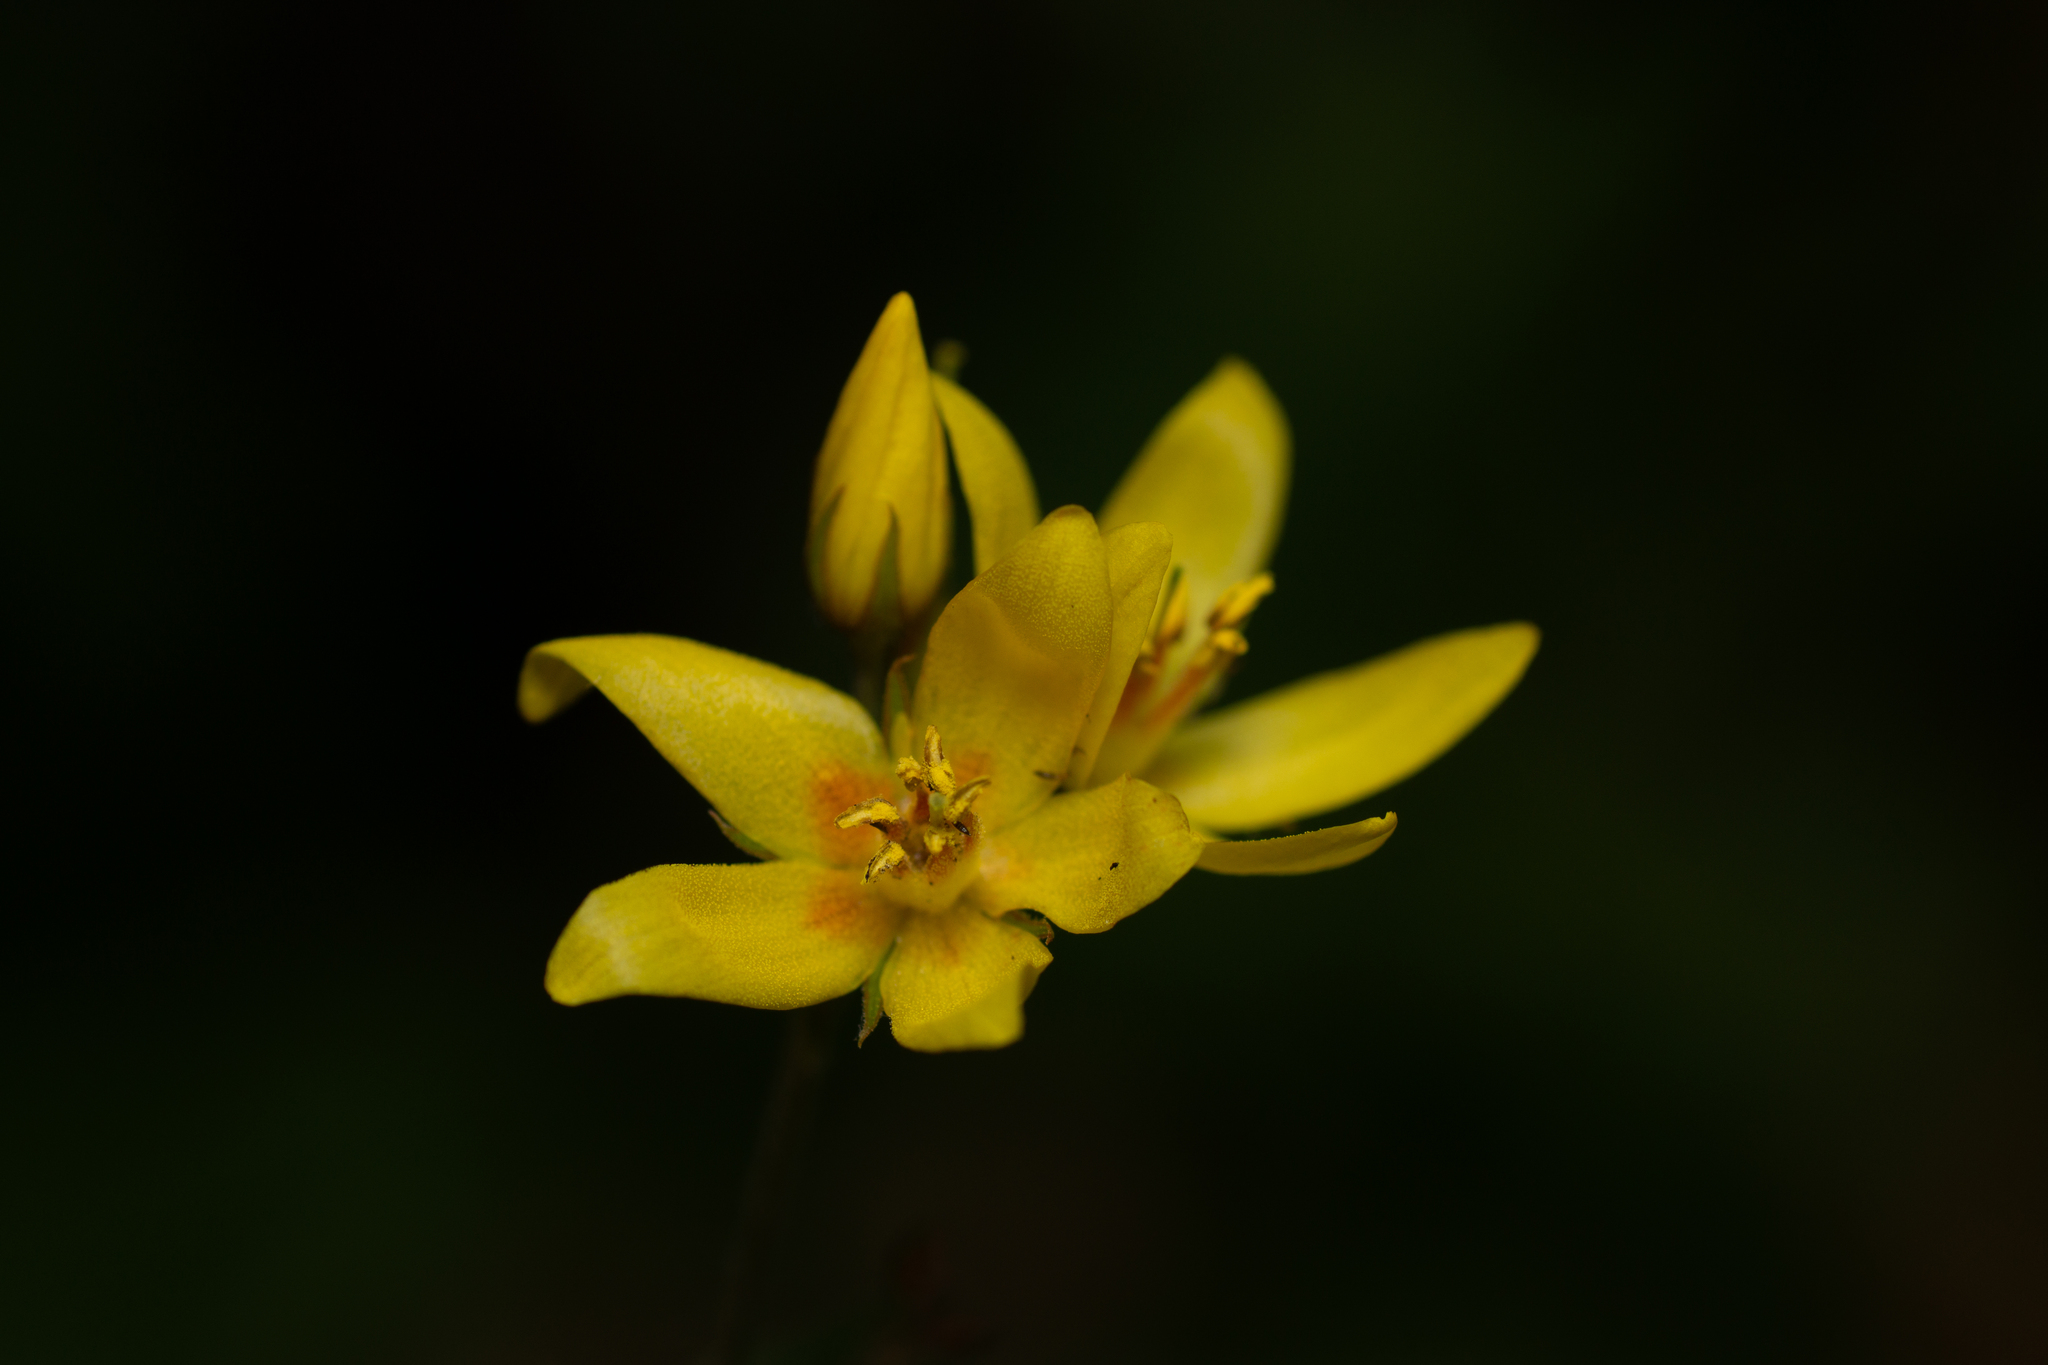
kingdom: Plantae
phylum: Tracheophyta
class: Magnoliopsida
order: Ericales
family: Primulaceae
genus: Lysimachia
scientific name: Lysimachia vulgaris
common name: Yellow loosestrife
